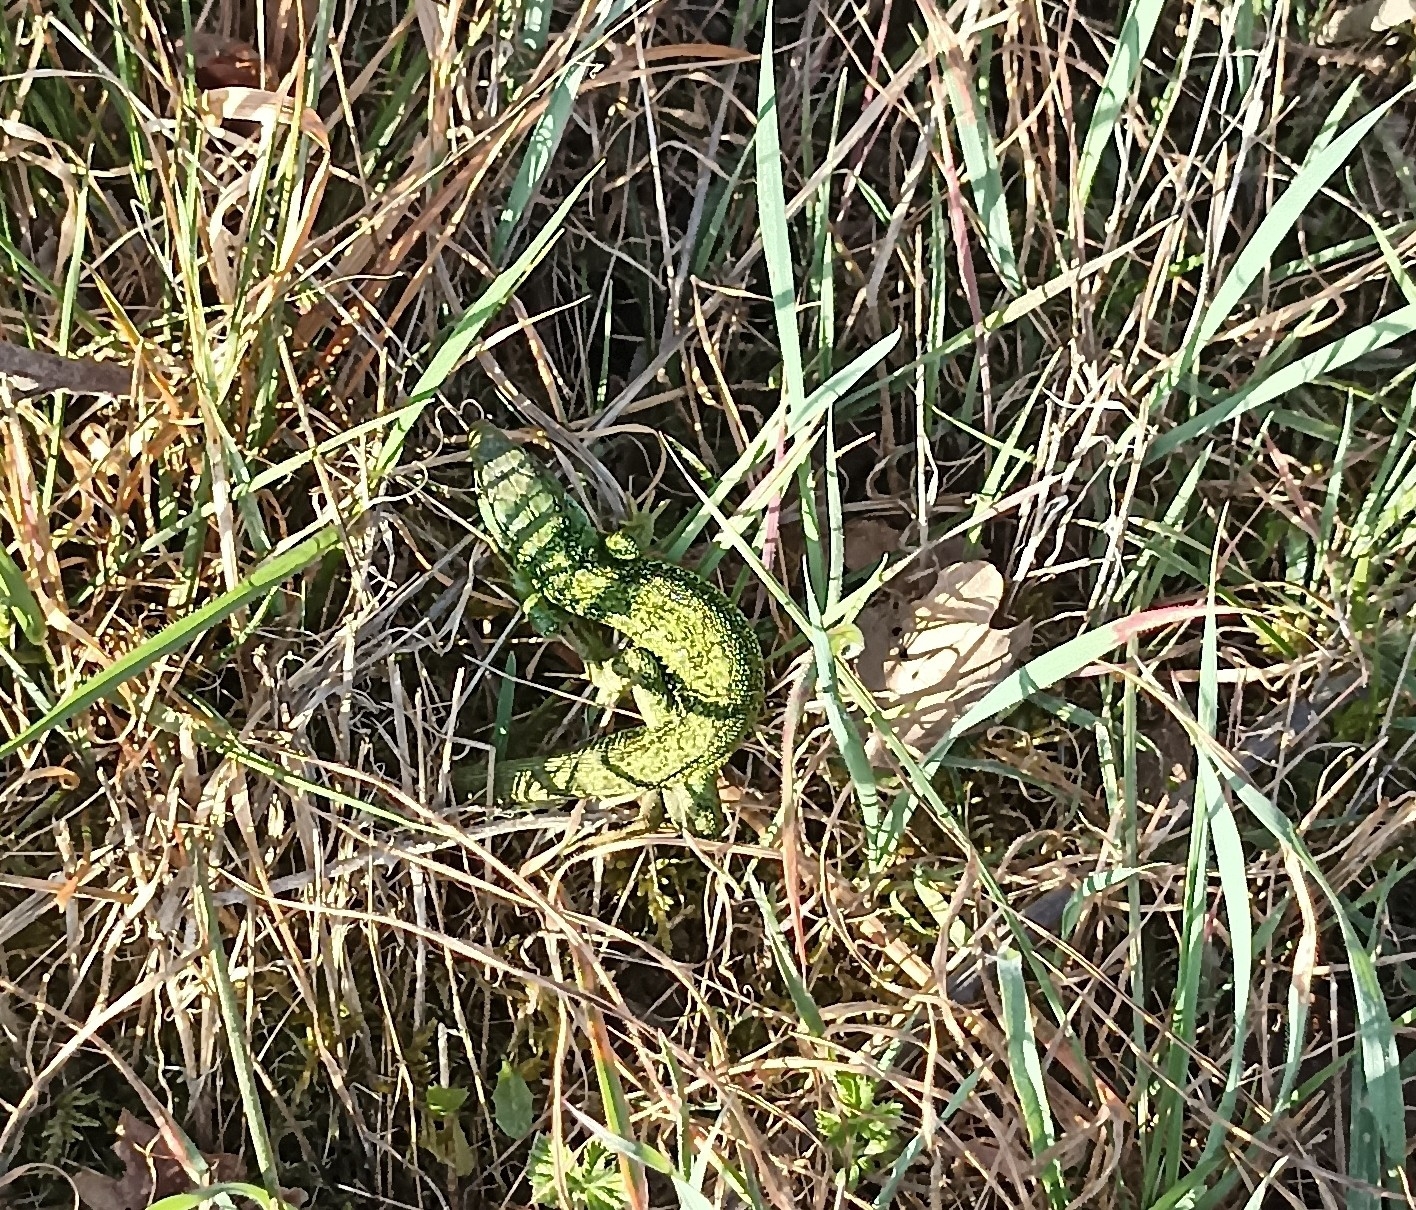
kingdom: Animalia
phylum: Chordata
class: Squamata
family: Lacertidae
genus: Lacerta
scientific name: Lacerta bilineata
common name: Western green lizard
